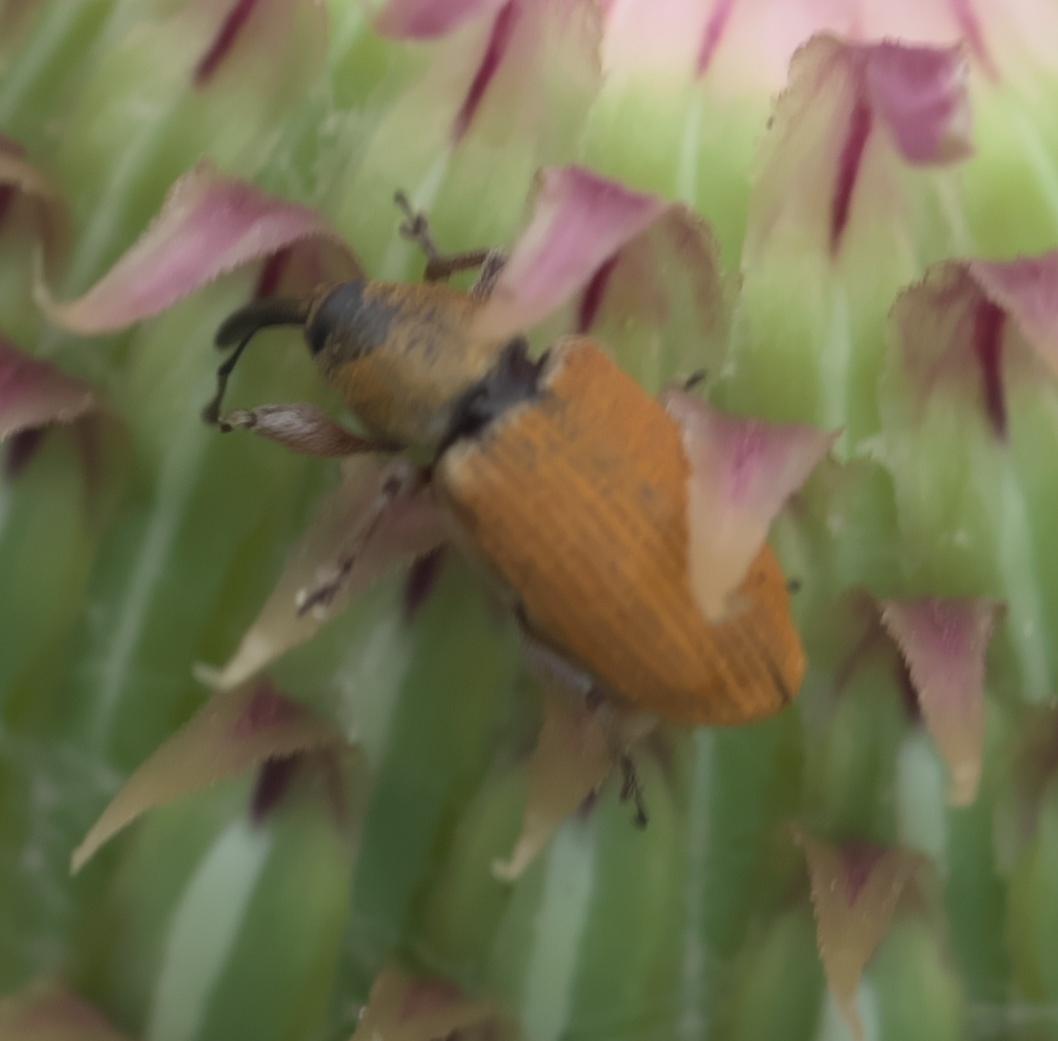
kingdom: Animalia
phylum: Arthropoda
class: Insecta
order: Coleoptera
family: Curculionidae
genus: Smicronyx
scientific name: Smicronyx fulvus
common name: Red sunflower seed weevil
